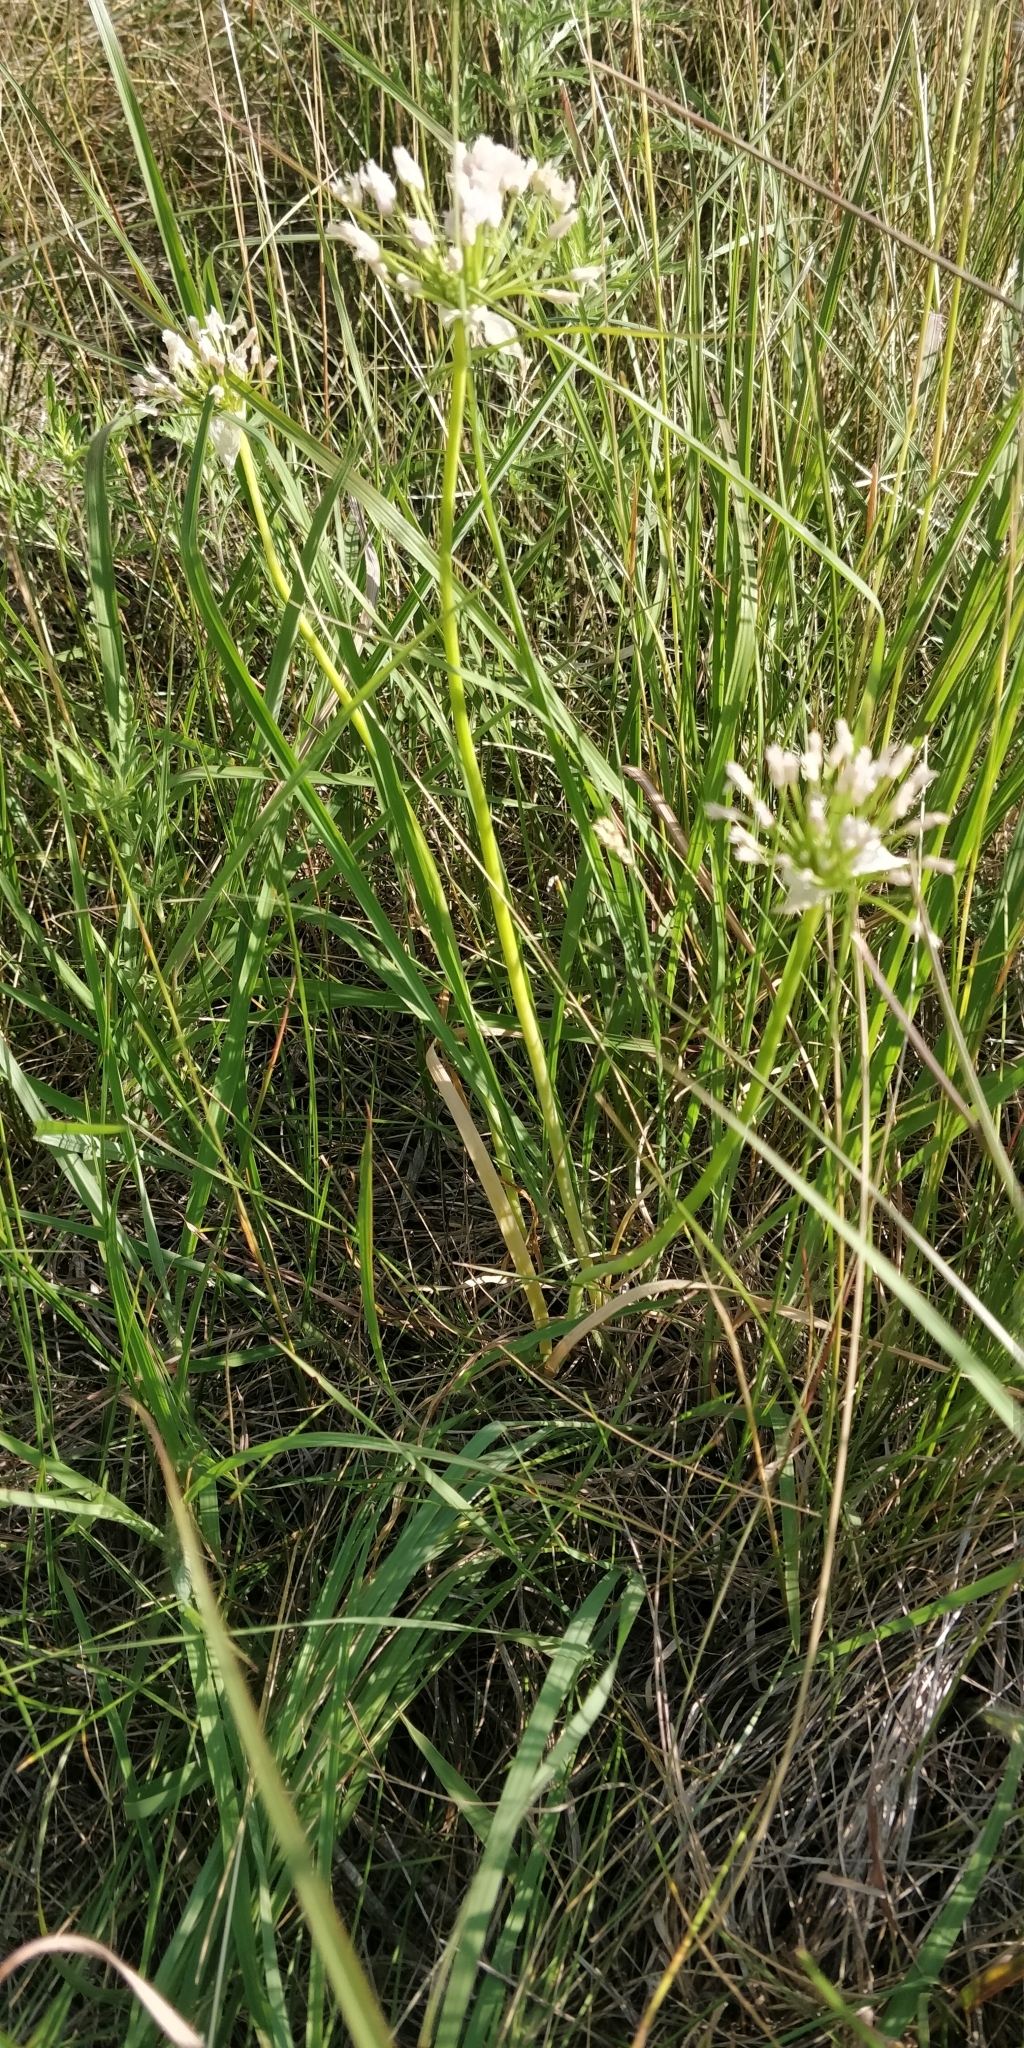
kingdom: Plantae
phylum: Tracheophyta
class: Liliopsida
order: Asparagales
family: Amaryllidaceae
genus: Allium
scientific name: Allium canadense
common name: Meadow garlic
